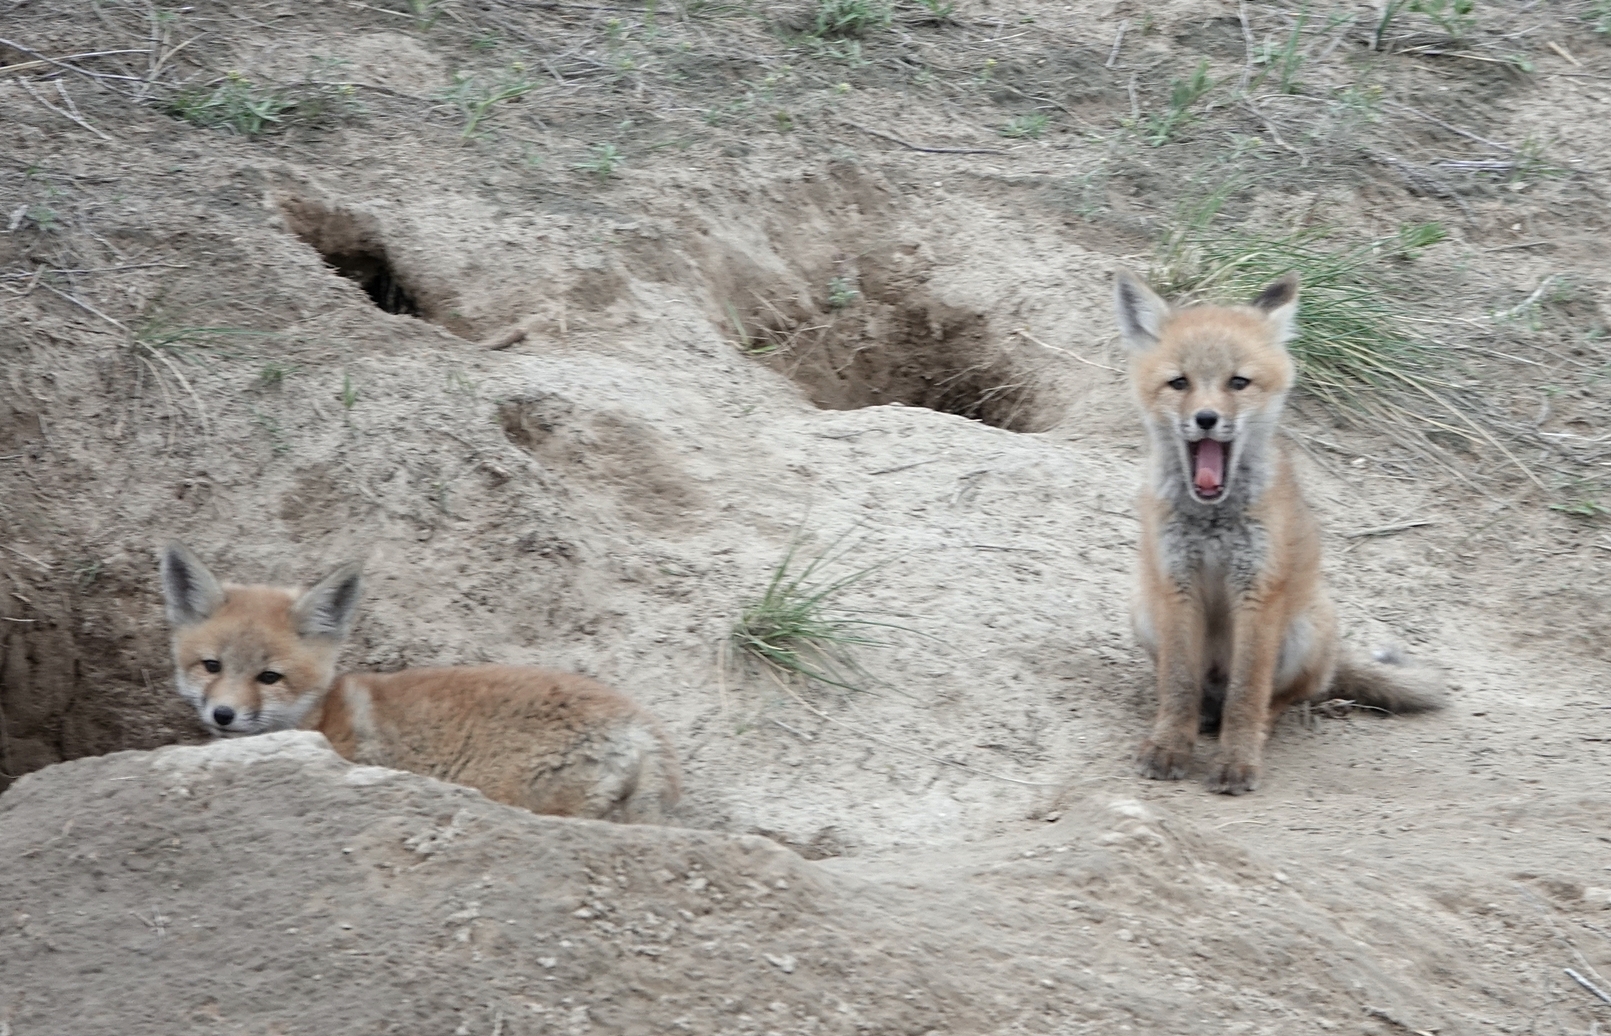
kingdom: Animalia
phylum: Chordata
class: Mammalia
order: Carnivora
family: Canidae
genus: Vulpes
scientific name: Vulpes vulpes
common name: Red fox
